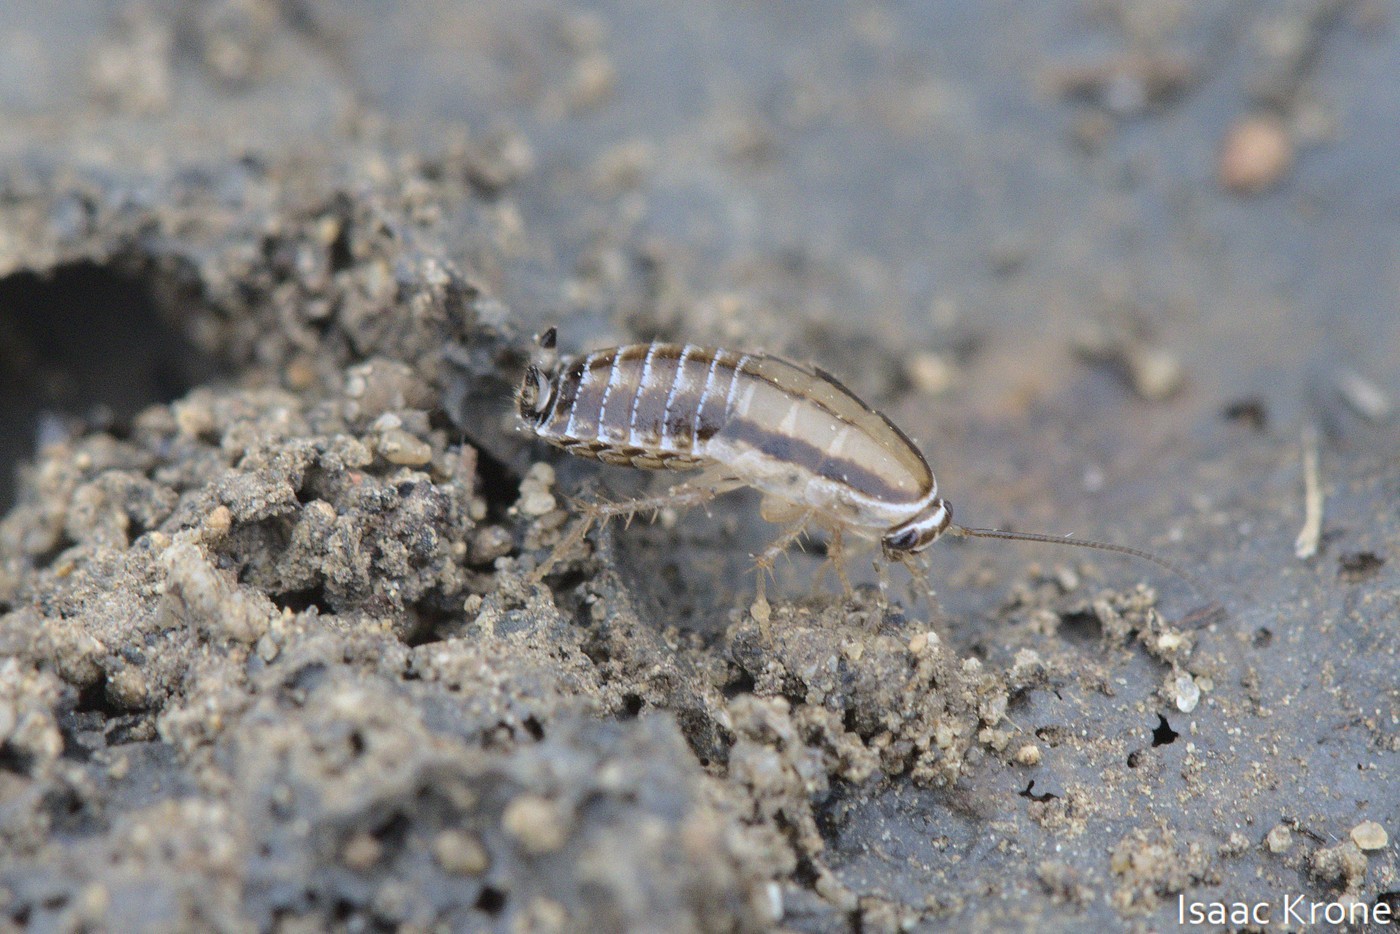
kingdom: Animalia
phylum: Arthropoda
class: Insecta
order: Blattodea
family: Ectobiidae
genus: Luridiblatta
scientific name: Luridiblatta trivittata
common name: Three-lined cockroach
